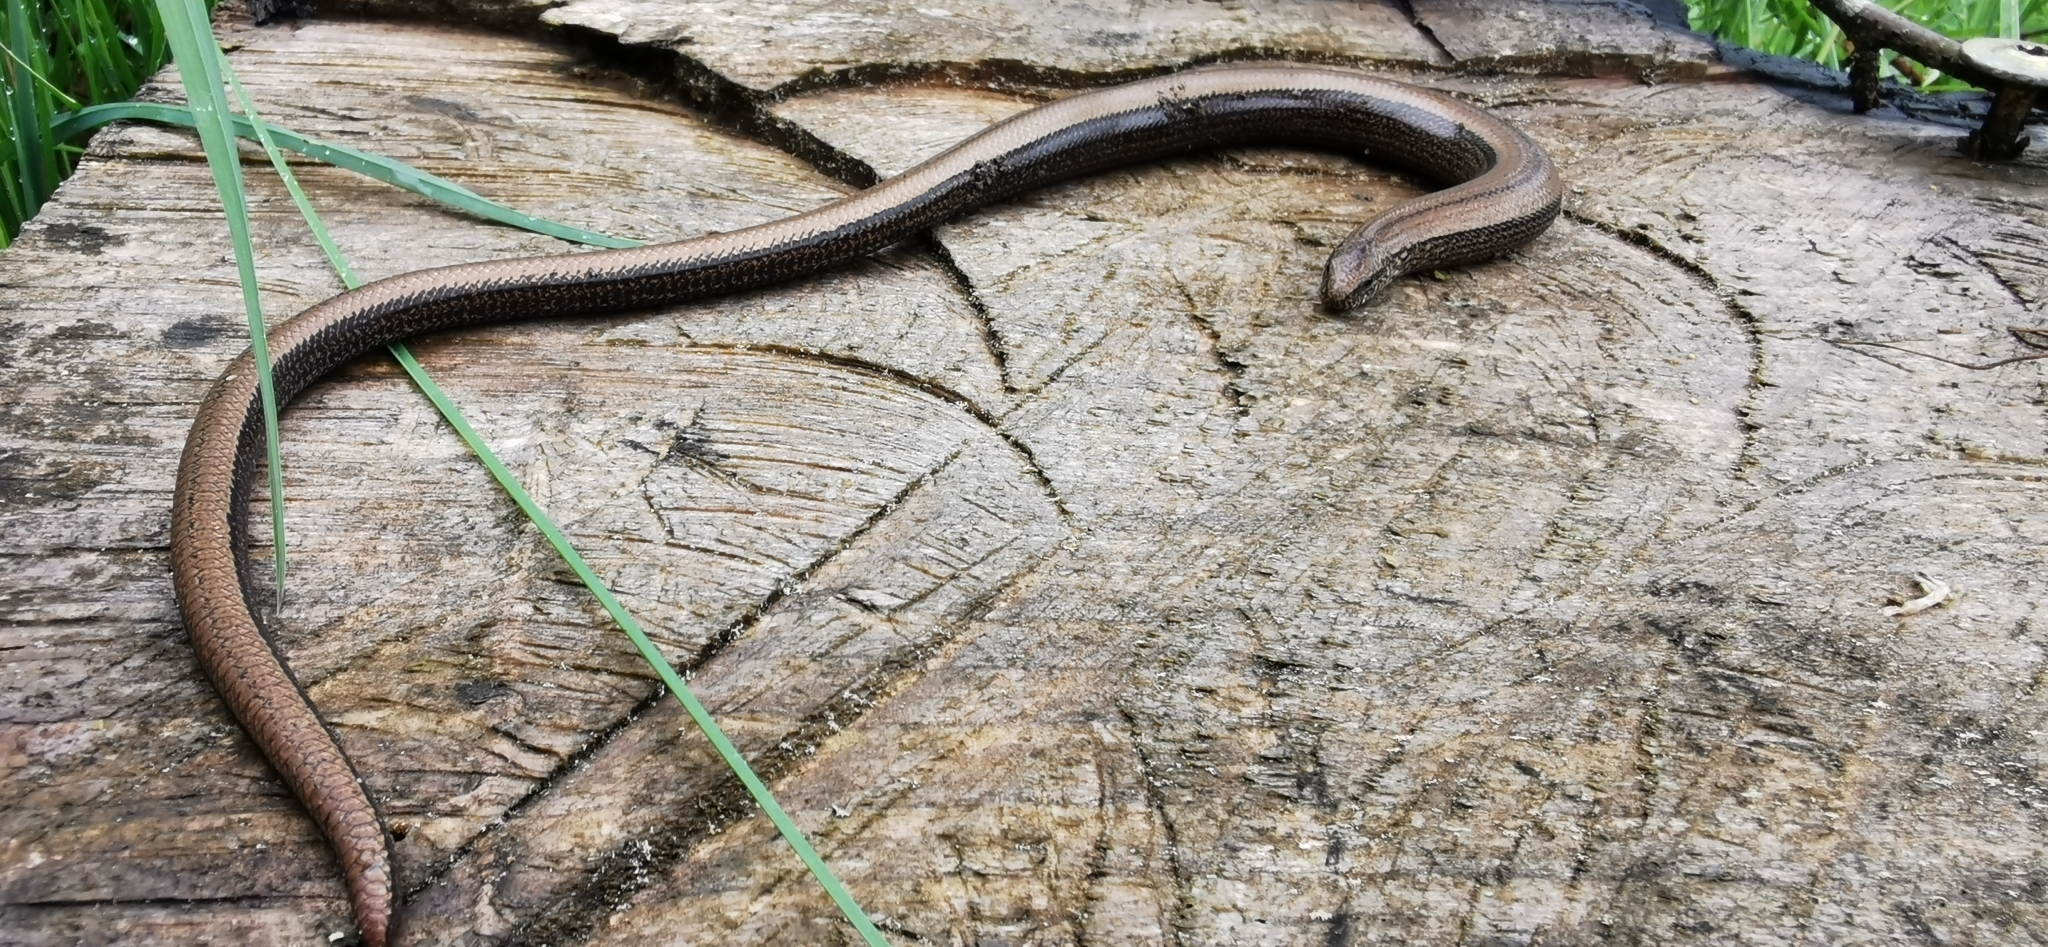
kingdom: Animalia
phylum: Chordata
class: Squamata
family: Anguidae
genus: Anguis
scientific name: Anguis fragilis
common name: Slow worm
